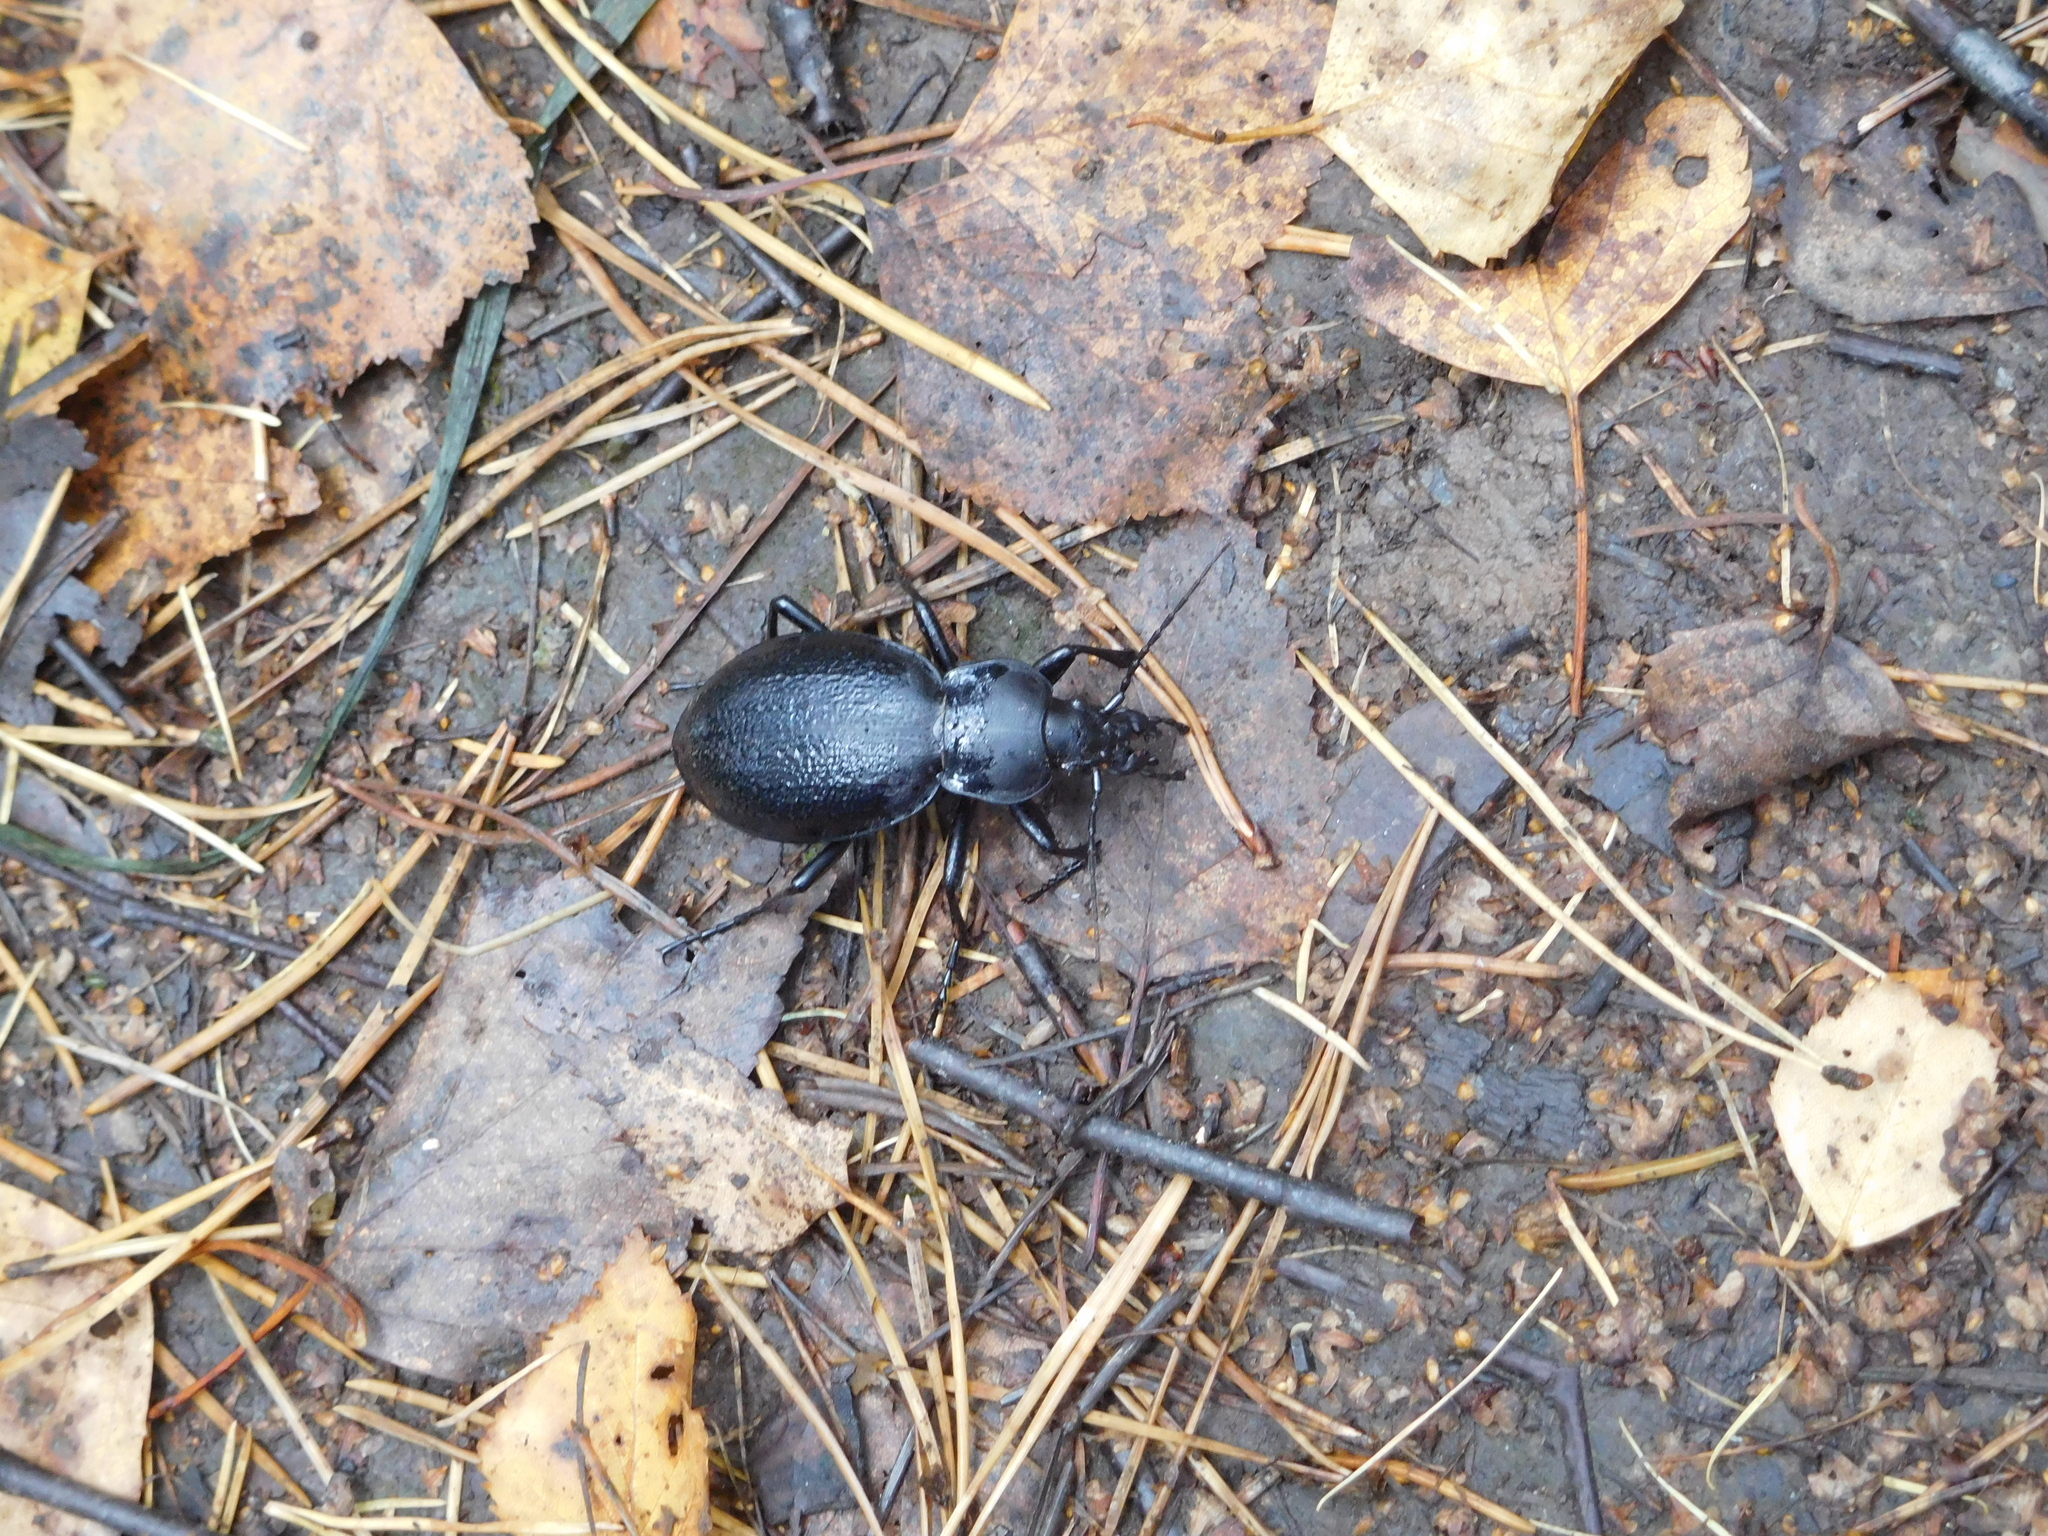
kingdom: Animalia
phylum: Arthropoda
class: Insecta
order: Coleoptera
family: Carabidae
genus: Carabus
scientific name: Carabus coriaceus
